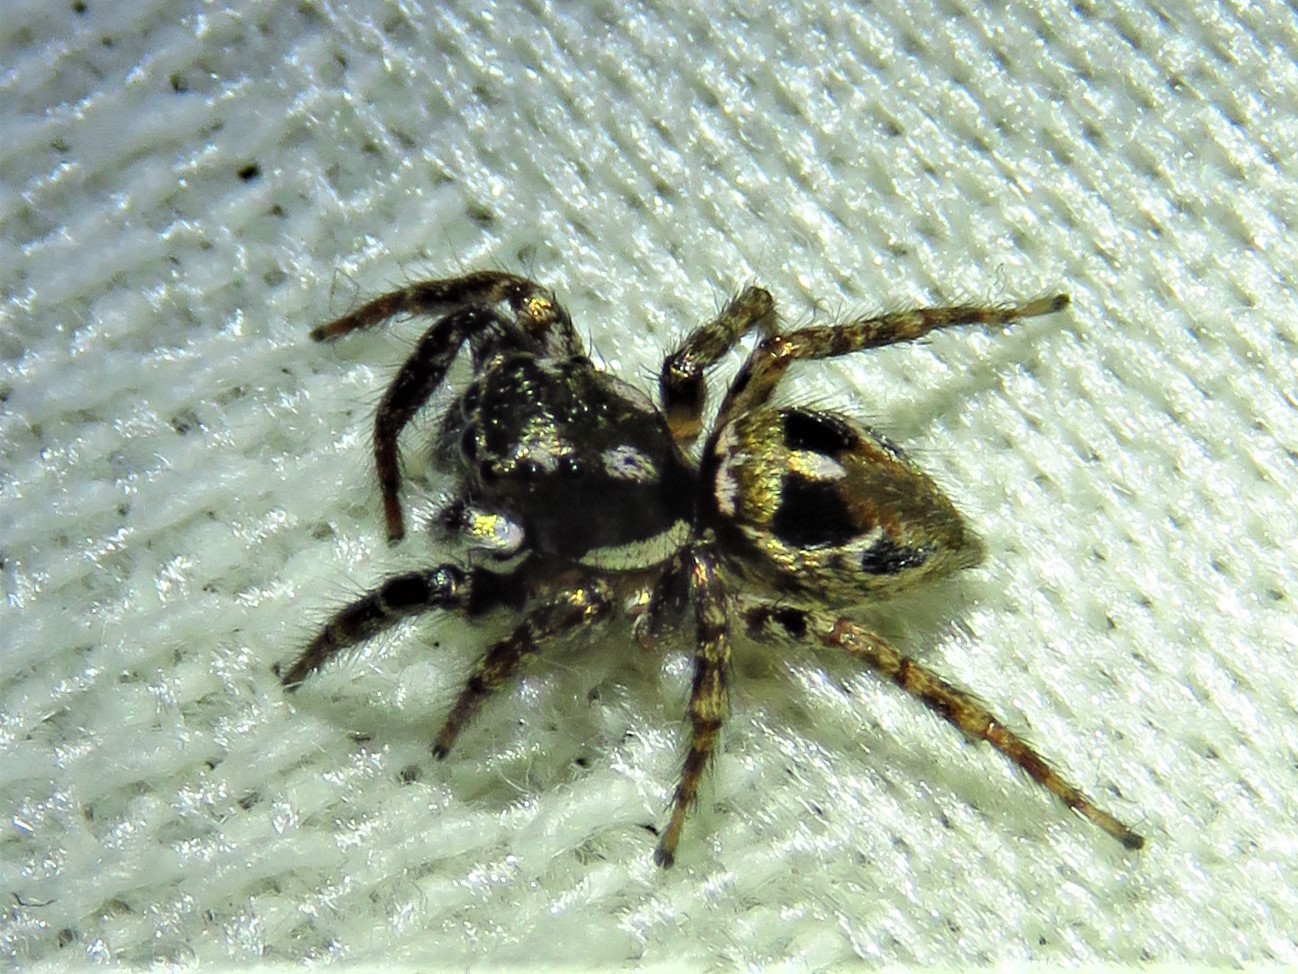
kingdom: Animalia
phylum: Arthropoda
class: Arachnida
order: Araneae
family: Salticidae
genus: Anasaitis
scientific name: Anasaitis canosa
